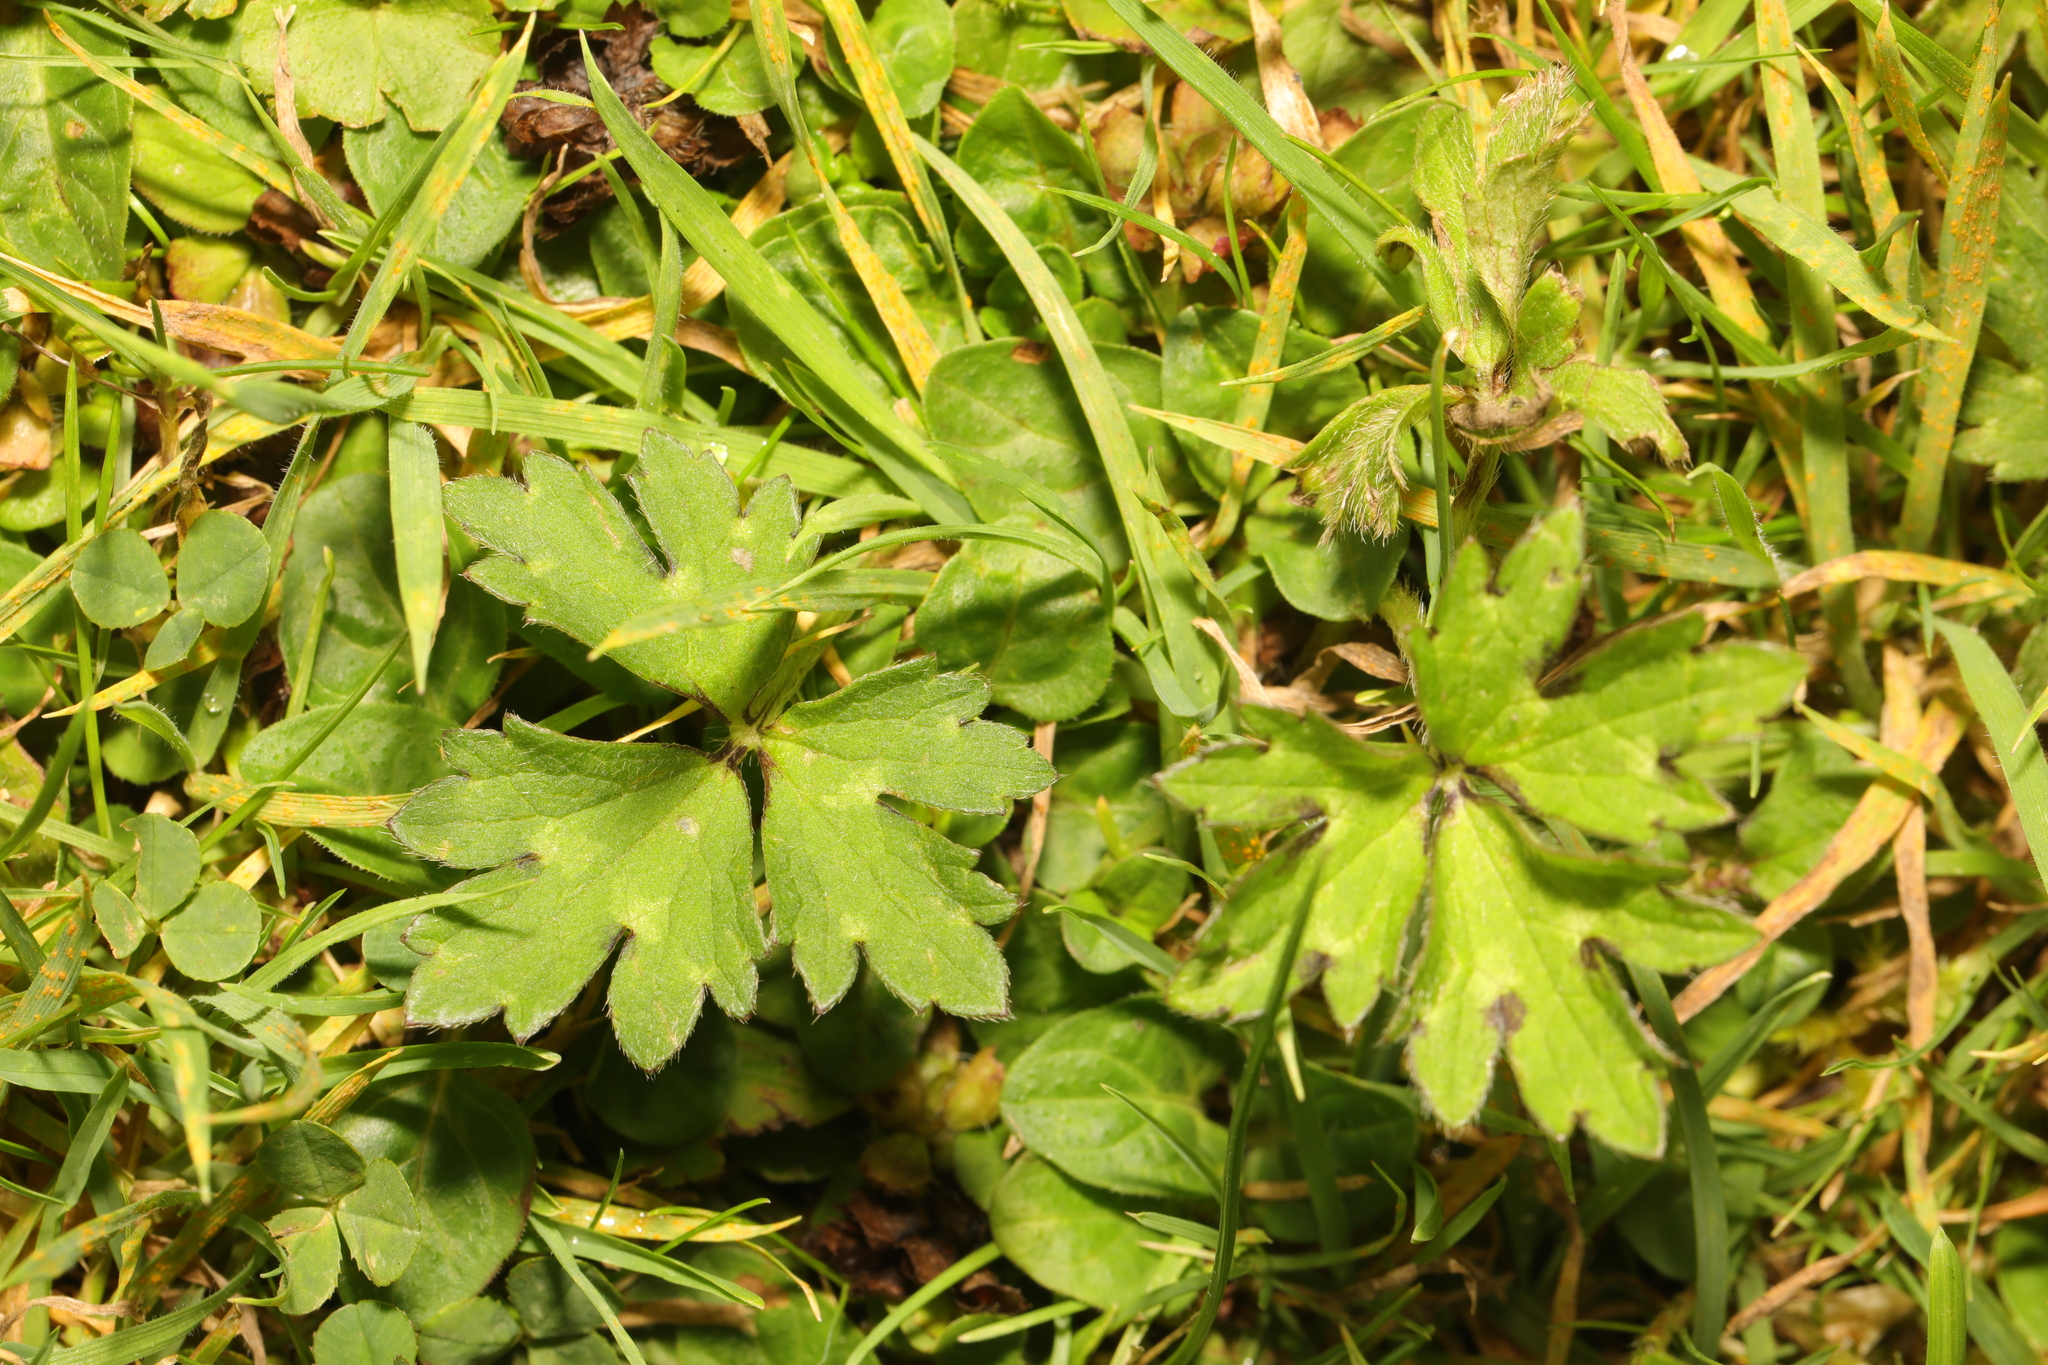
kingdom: Plantae
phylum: Tracheophyta
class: Magnoliopsida
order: Ranunculales
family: Ranunculaceae
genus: Ranunculus
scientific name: Ranunculus repens
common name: Creeping buttercup
